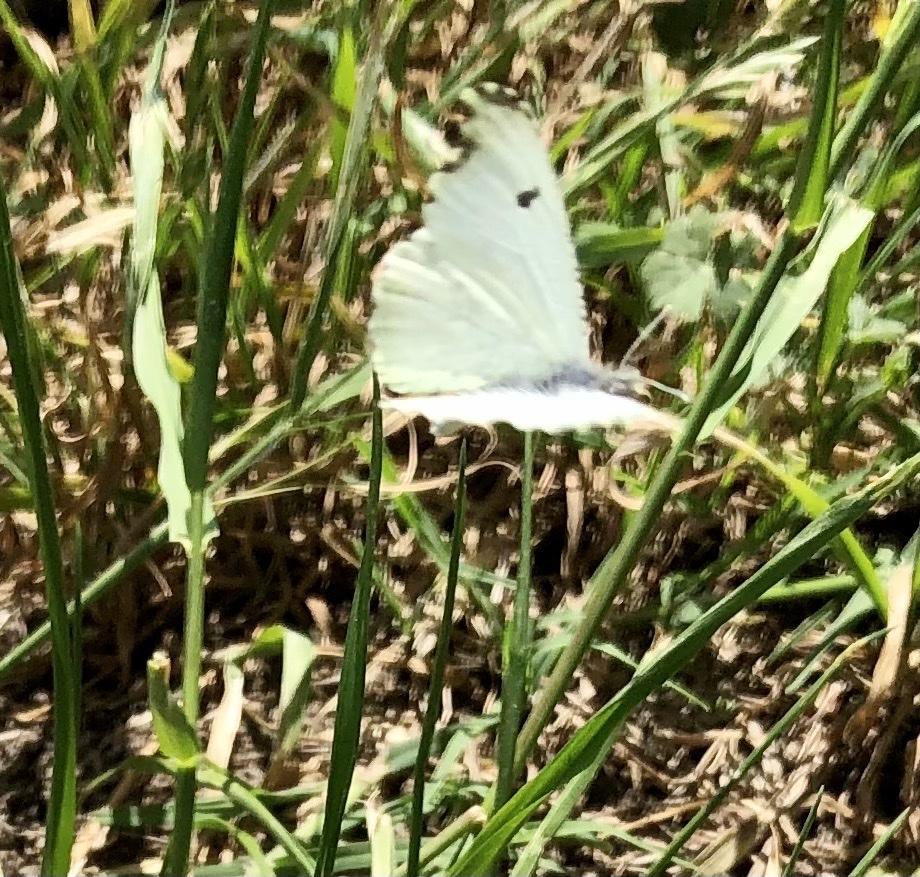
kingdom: Animalia
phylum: Arthropoda
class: Insecta
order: Lepidoptera
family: Pieridae
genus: Anthocharis
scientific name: Anthocharis midea
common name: Falcate orangetip
